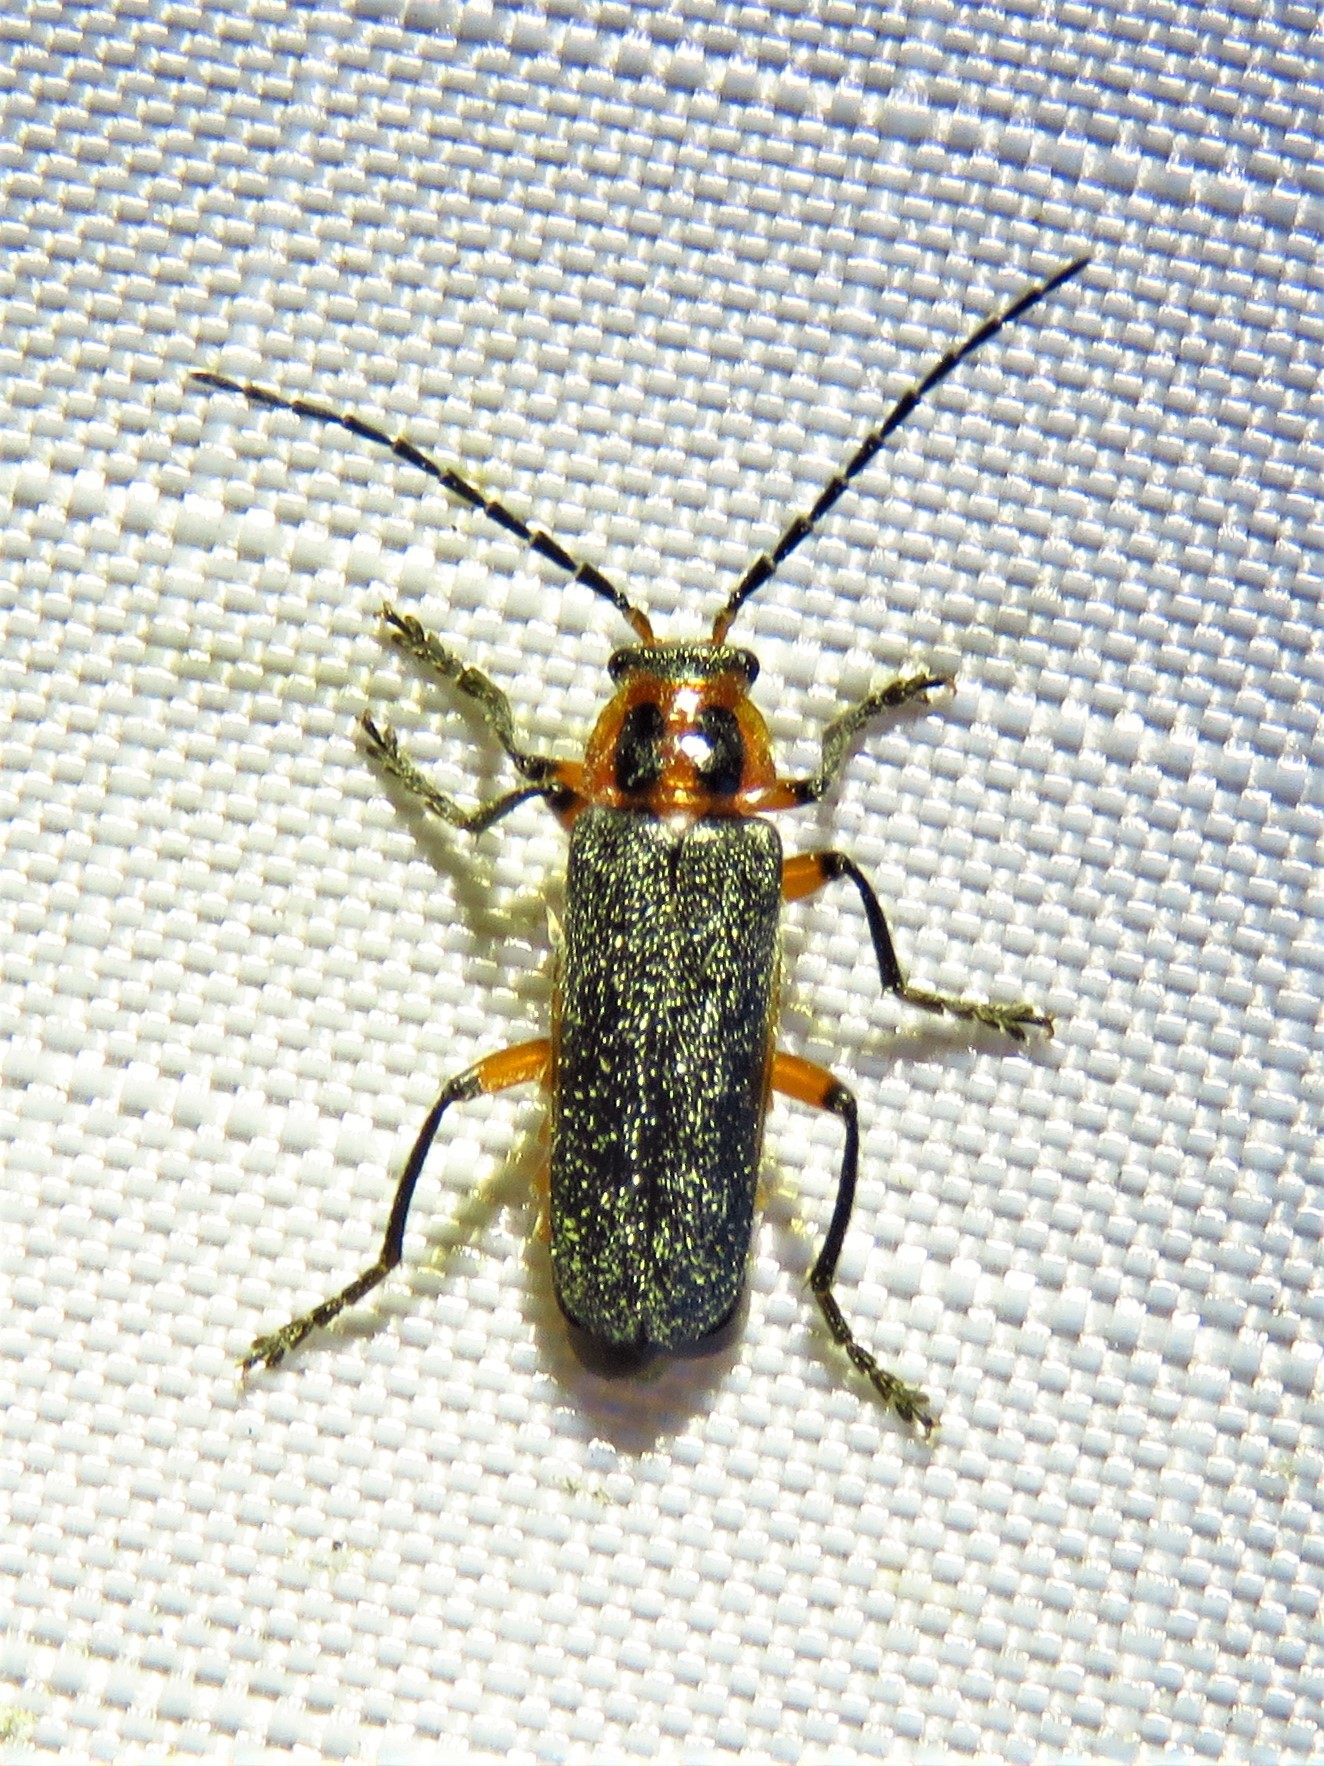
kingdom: Animalia
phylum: Arthropoda
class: Insecta
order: Coleoptera
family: Cantharidae
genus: Atalantycha
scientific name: Atalantycha bilineata
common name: Two-lined leatherwing
